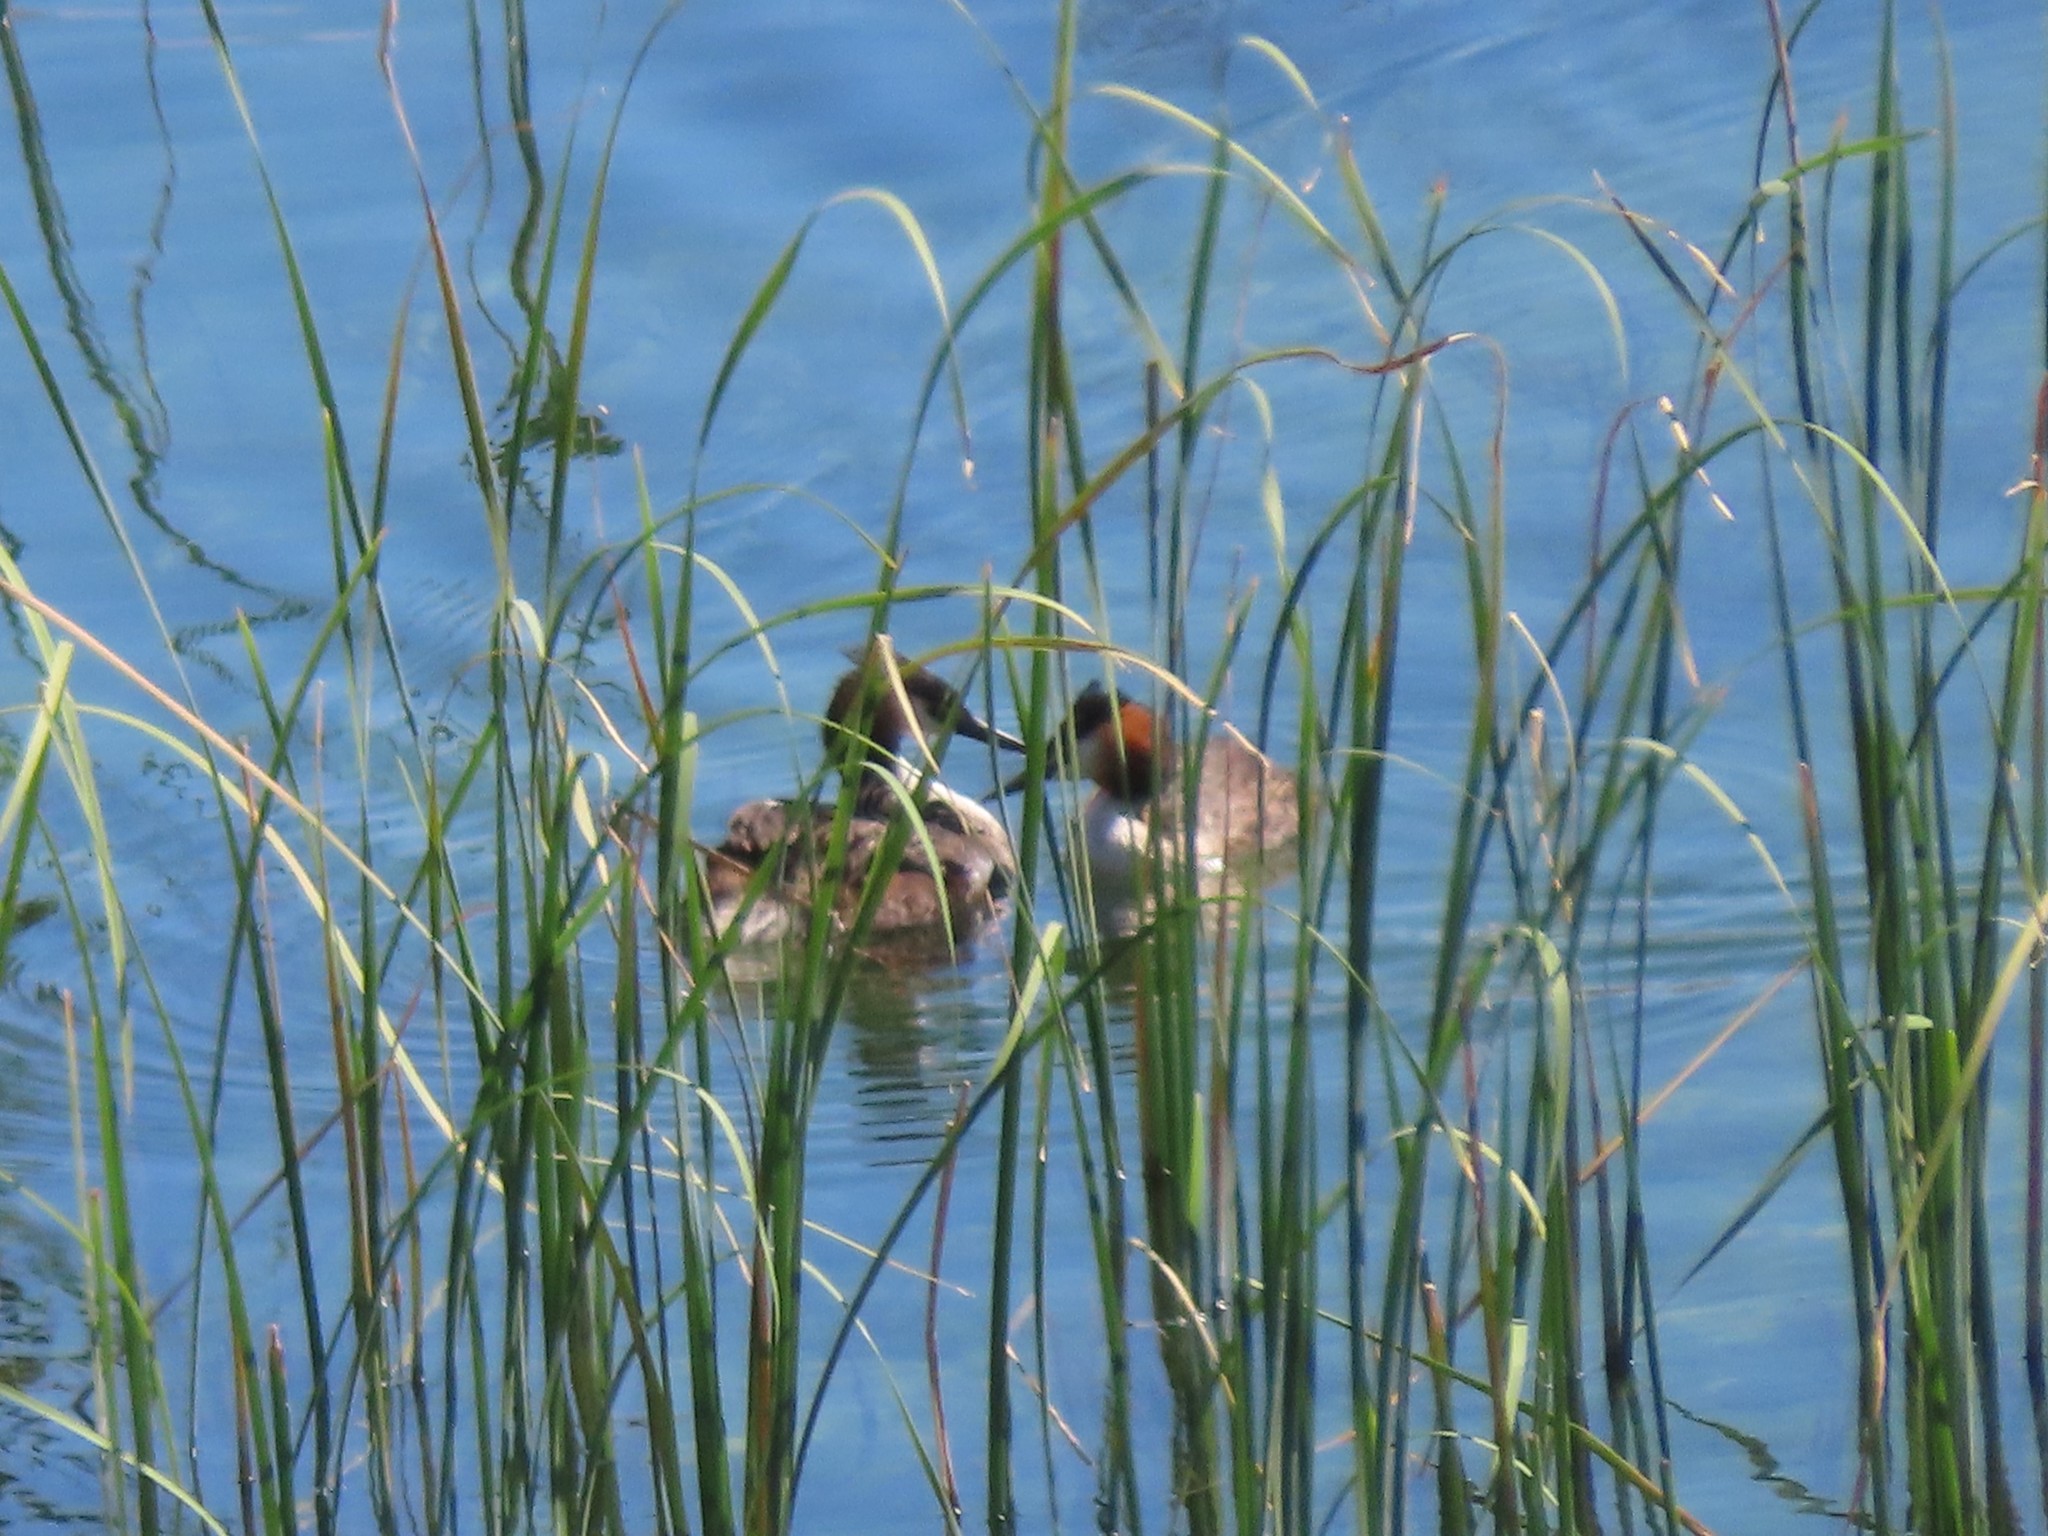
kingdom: Animalia
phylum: Chordata
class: Aves
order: Podicipediformes
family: Podicipedidae
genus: Podiceps
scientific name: Podiceps cristatus
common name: Great crested grebe
